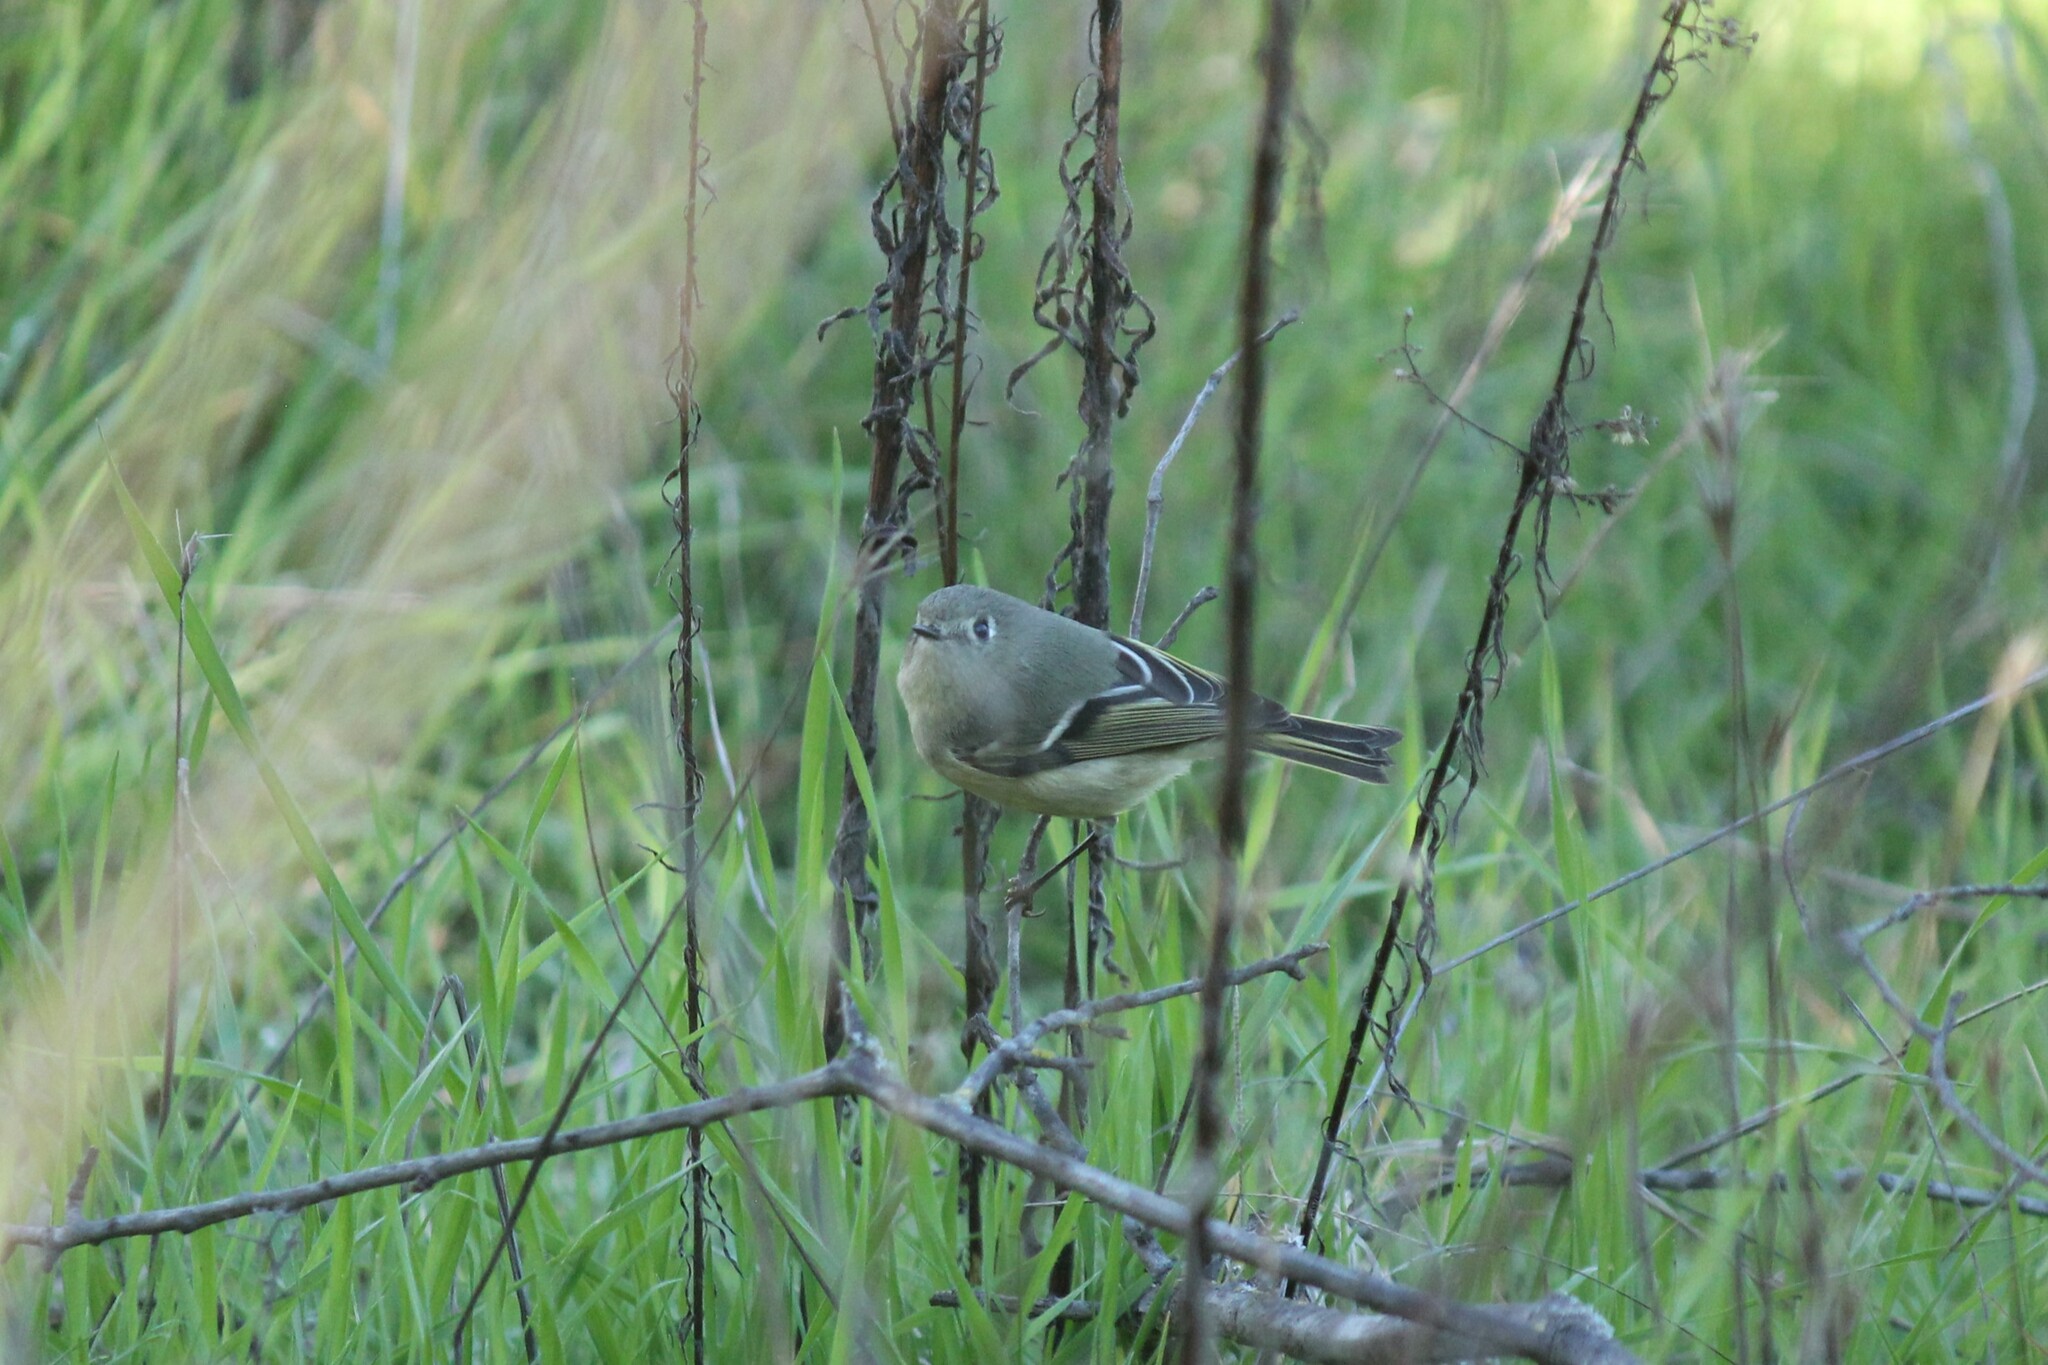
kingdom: Animalia
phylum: Chordata
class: Aves
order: Passeriformes
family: Regulidae
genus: Regulus
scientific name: Regulus calendula
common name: Ruby-crowned kinglet
